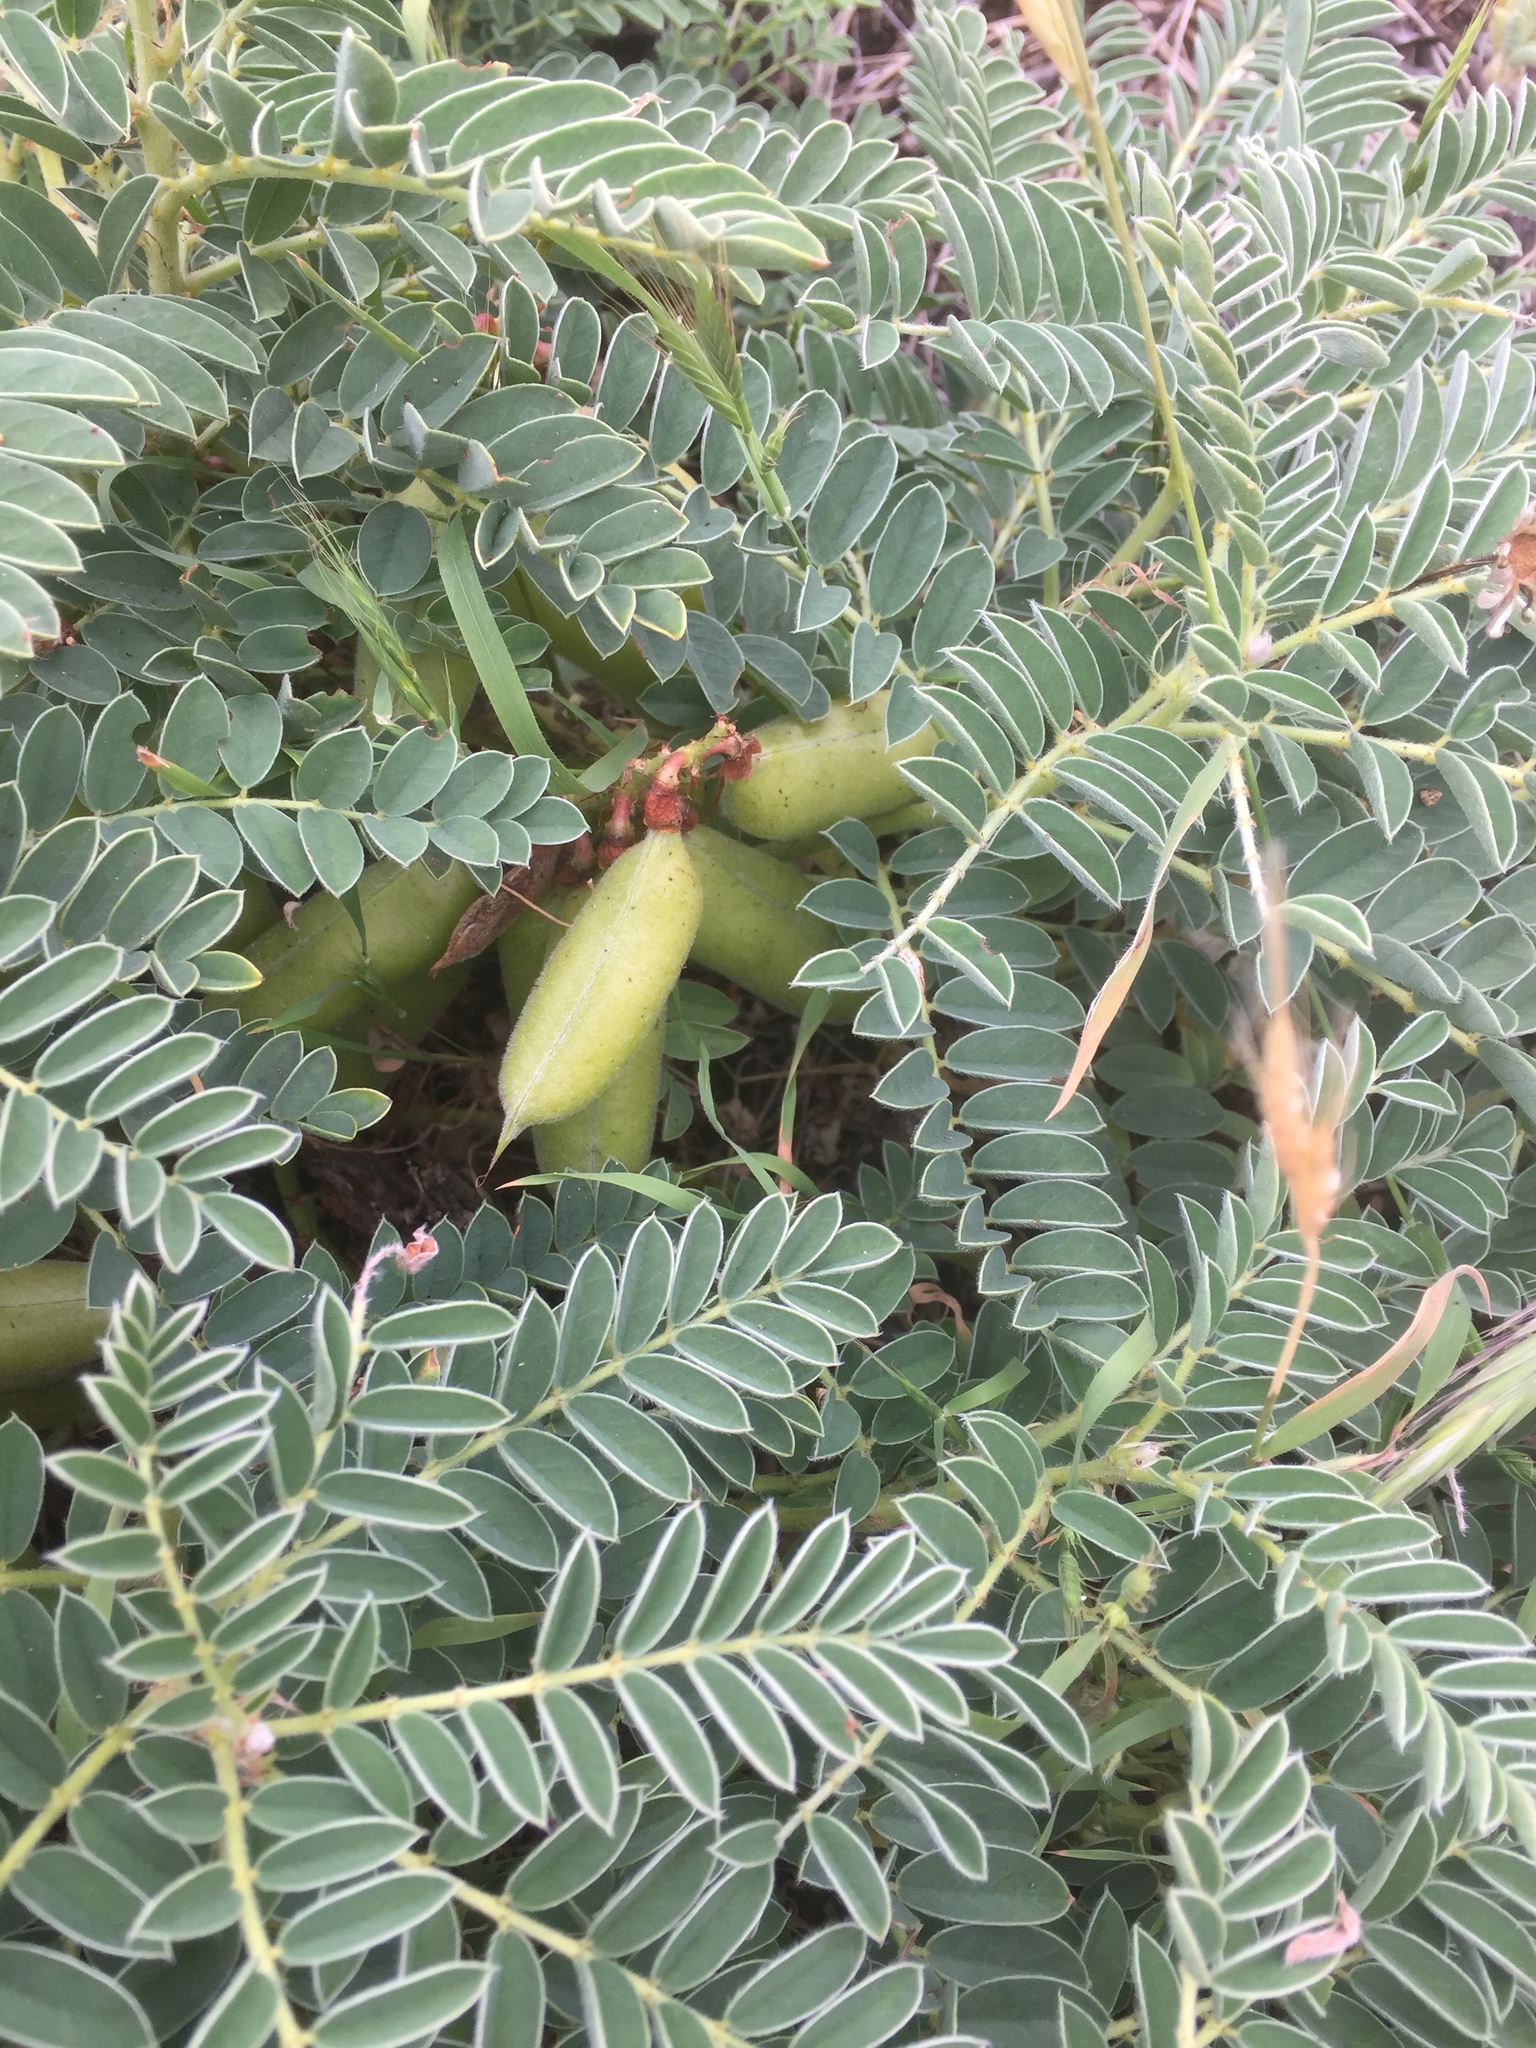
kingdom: Plantae
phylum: Tracheophyta
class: Magnoliopsida
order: Fabales
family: Fabaceae
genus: Erophaca
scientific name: Erophaca baetica
